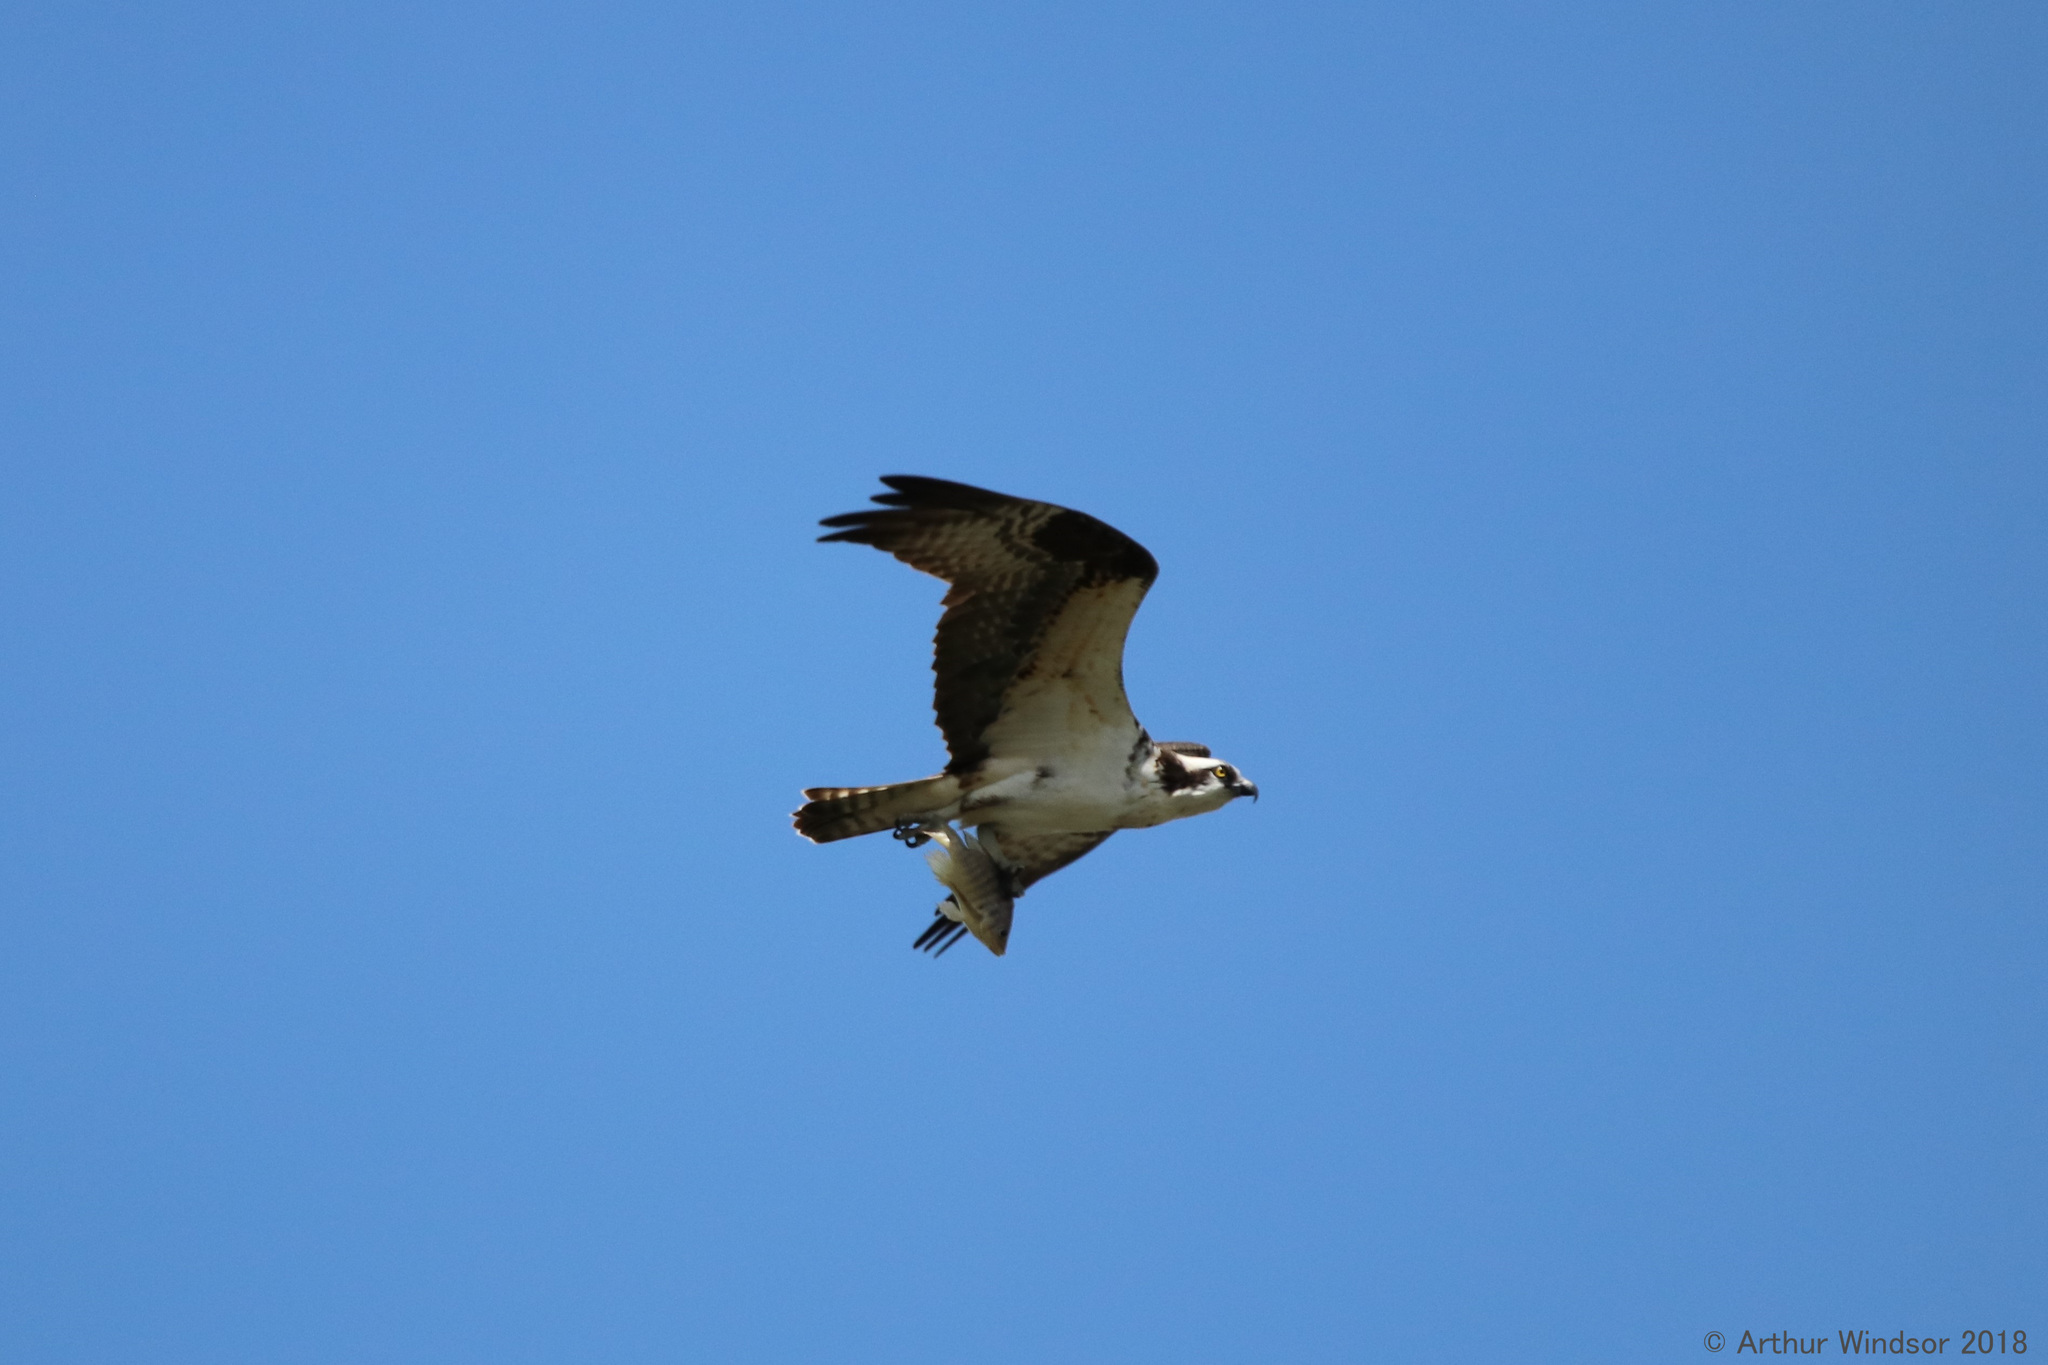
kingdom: Animalia
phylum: Chordata
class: Aves
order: Accipitriformes
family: Pandionidae
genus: Pandion
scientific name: Pandion haliaetus
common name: Osprey
